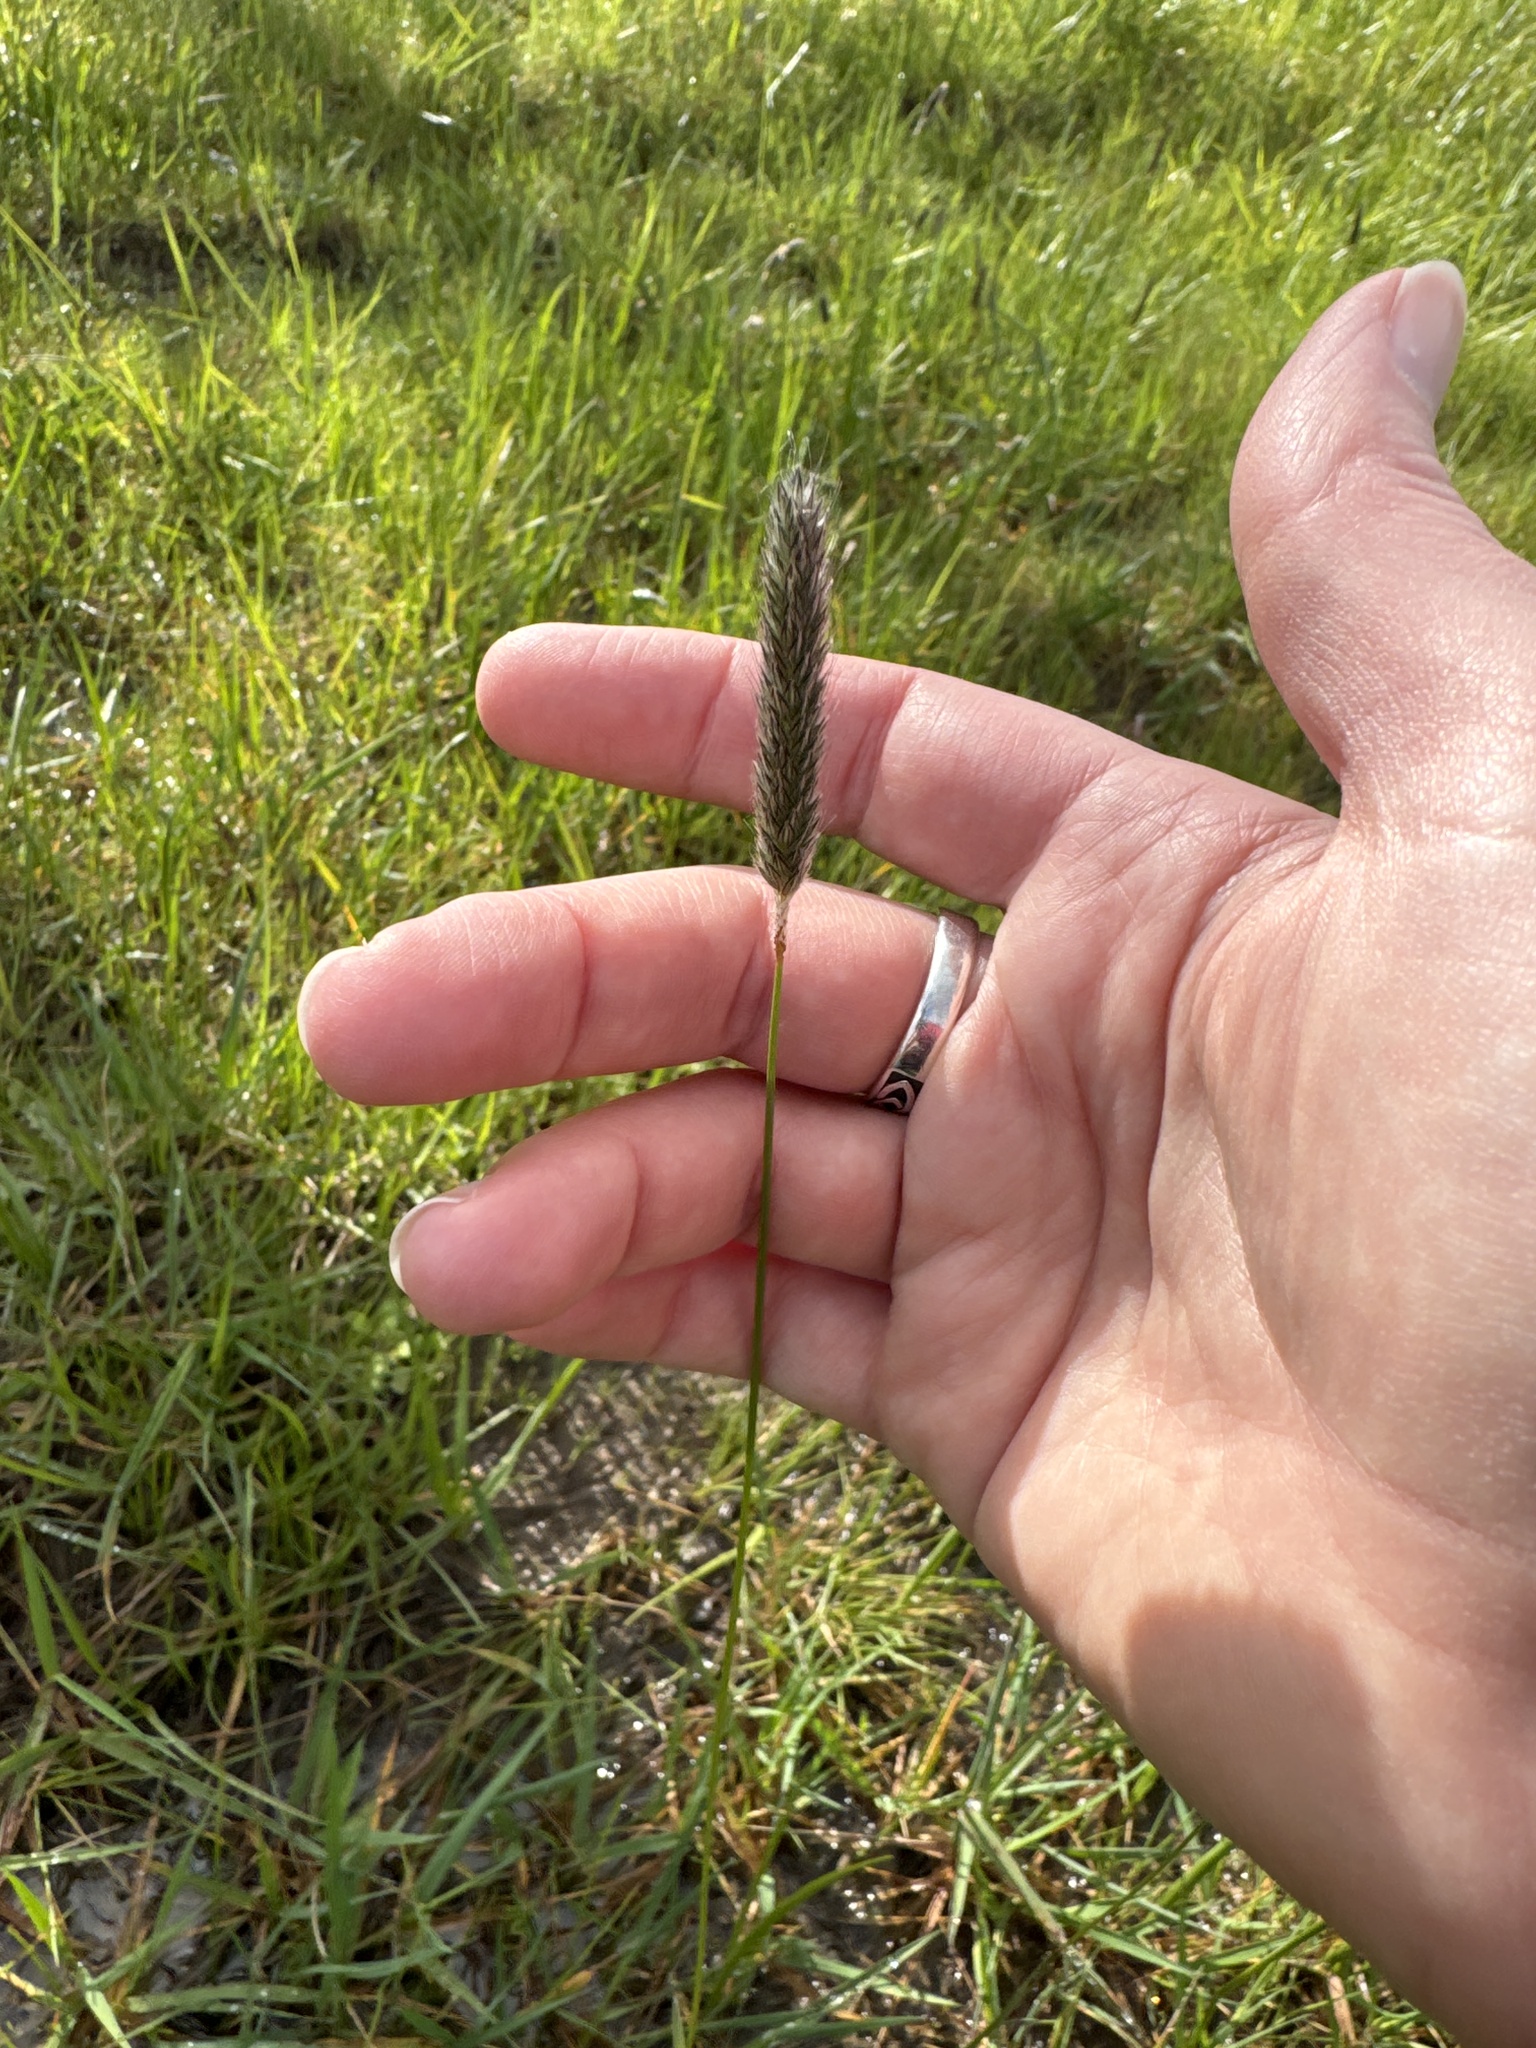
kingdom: Plantae
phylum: Tracheophyta
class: Liliopsida
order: Poales
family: Poaceae
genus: Alopecurus
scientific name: Alopecurus pratensis
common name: Meadow foxtail
